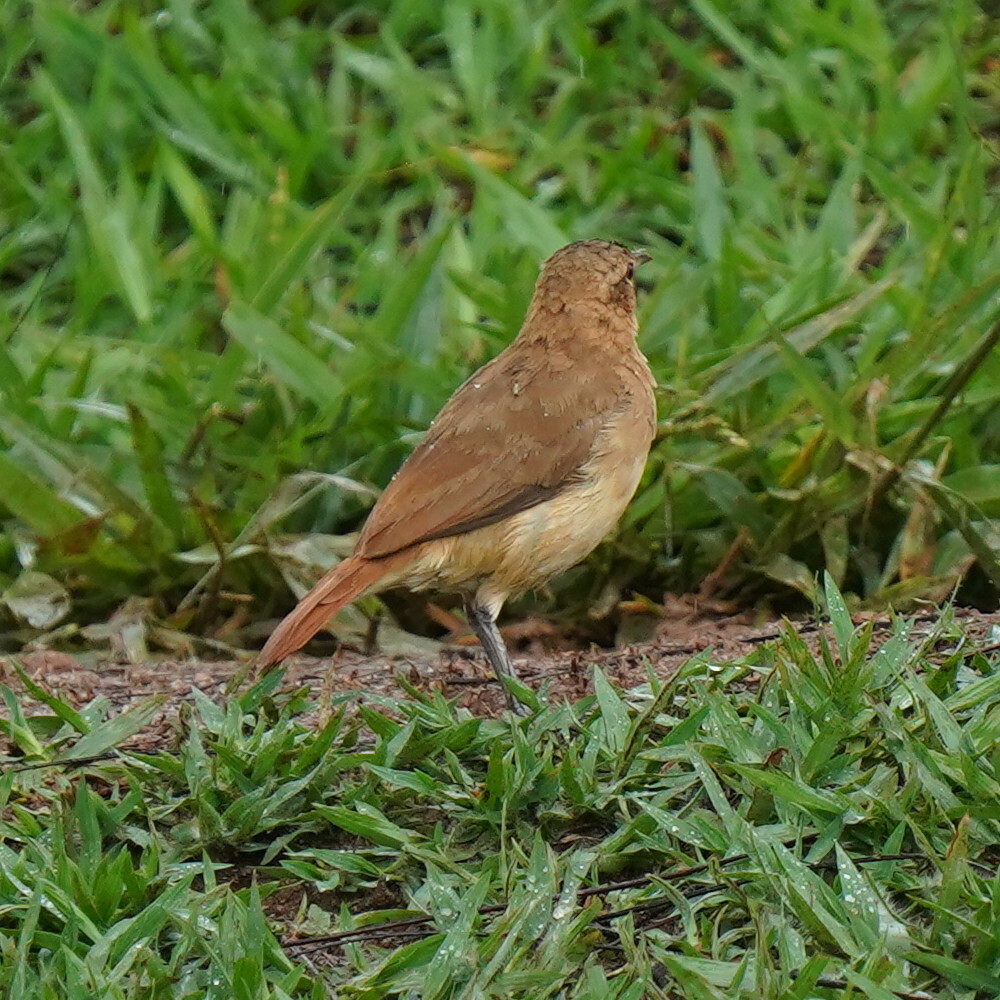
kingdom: Animalia
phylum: Chordata
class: Aves
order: Passeriformes
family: Furnariidae
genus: Furnarius
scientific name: Furnarius rufus
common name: Rufous hornero
